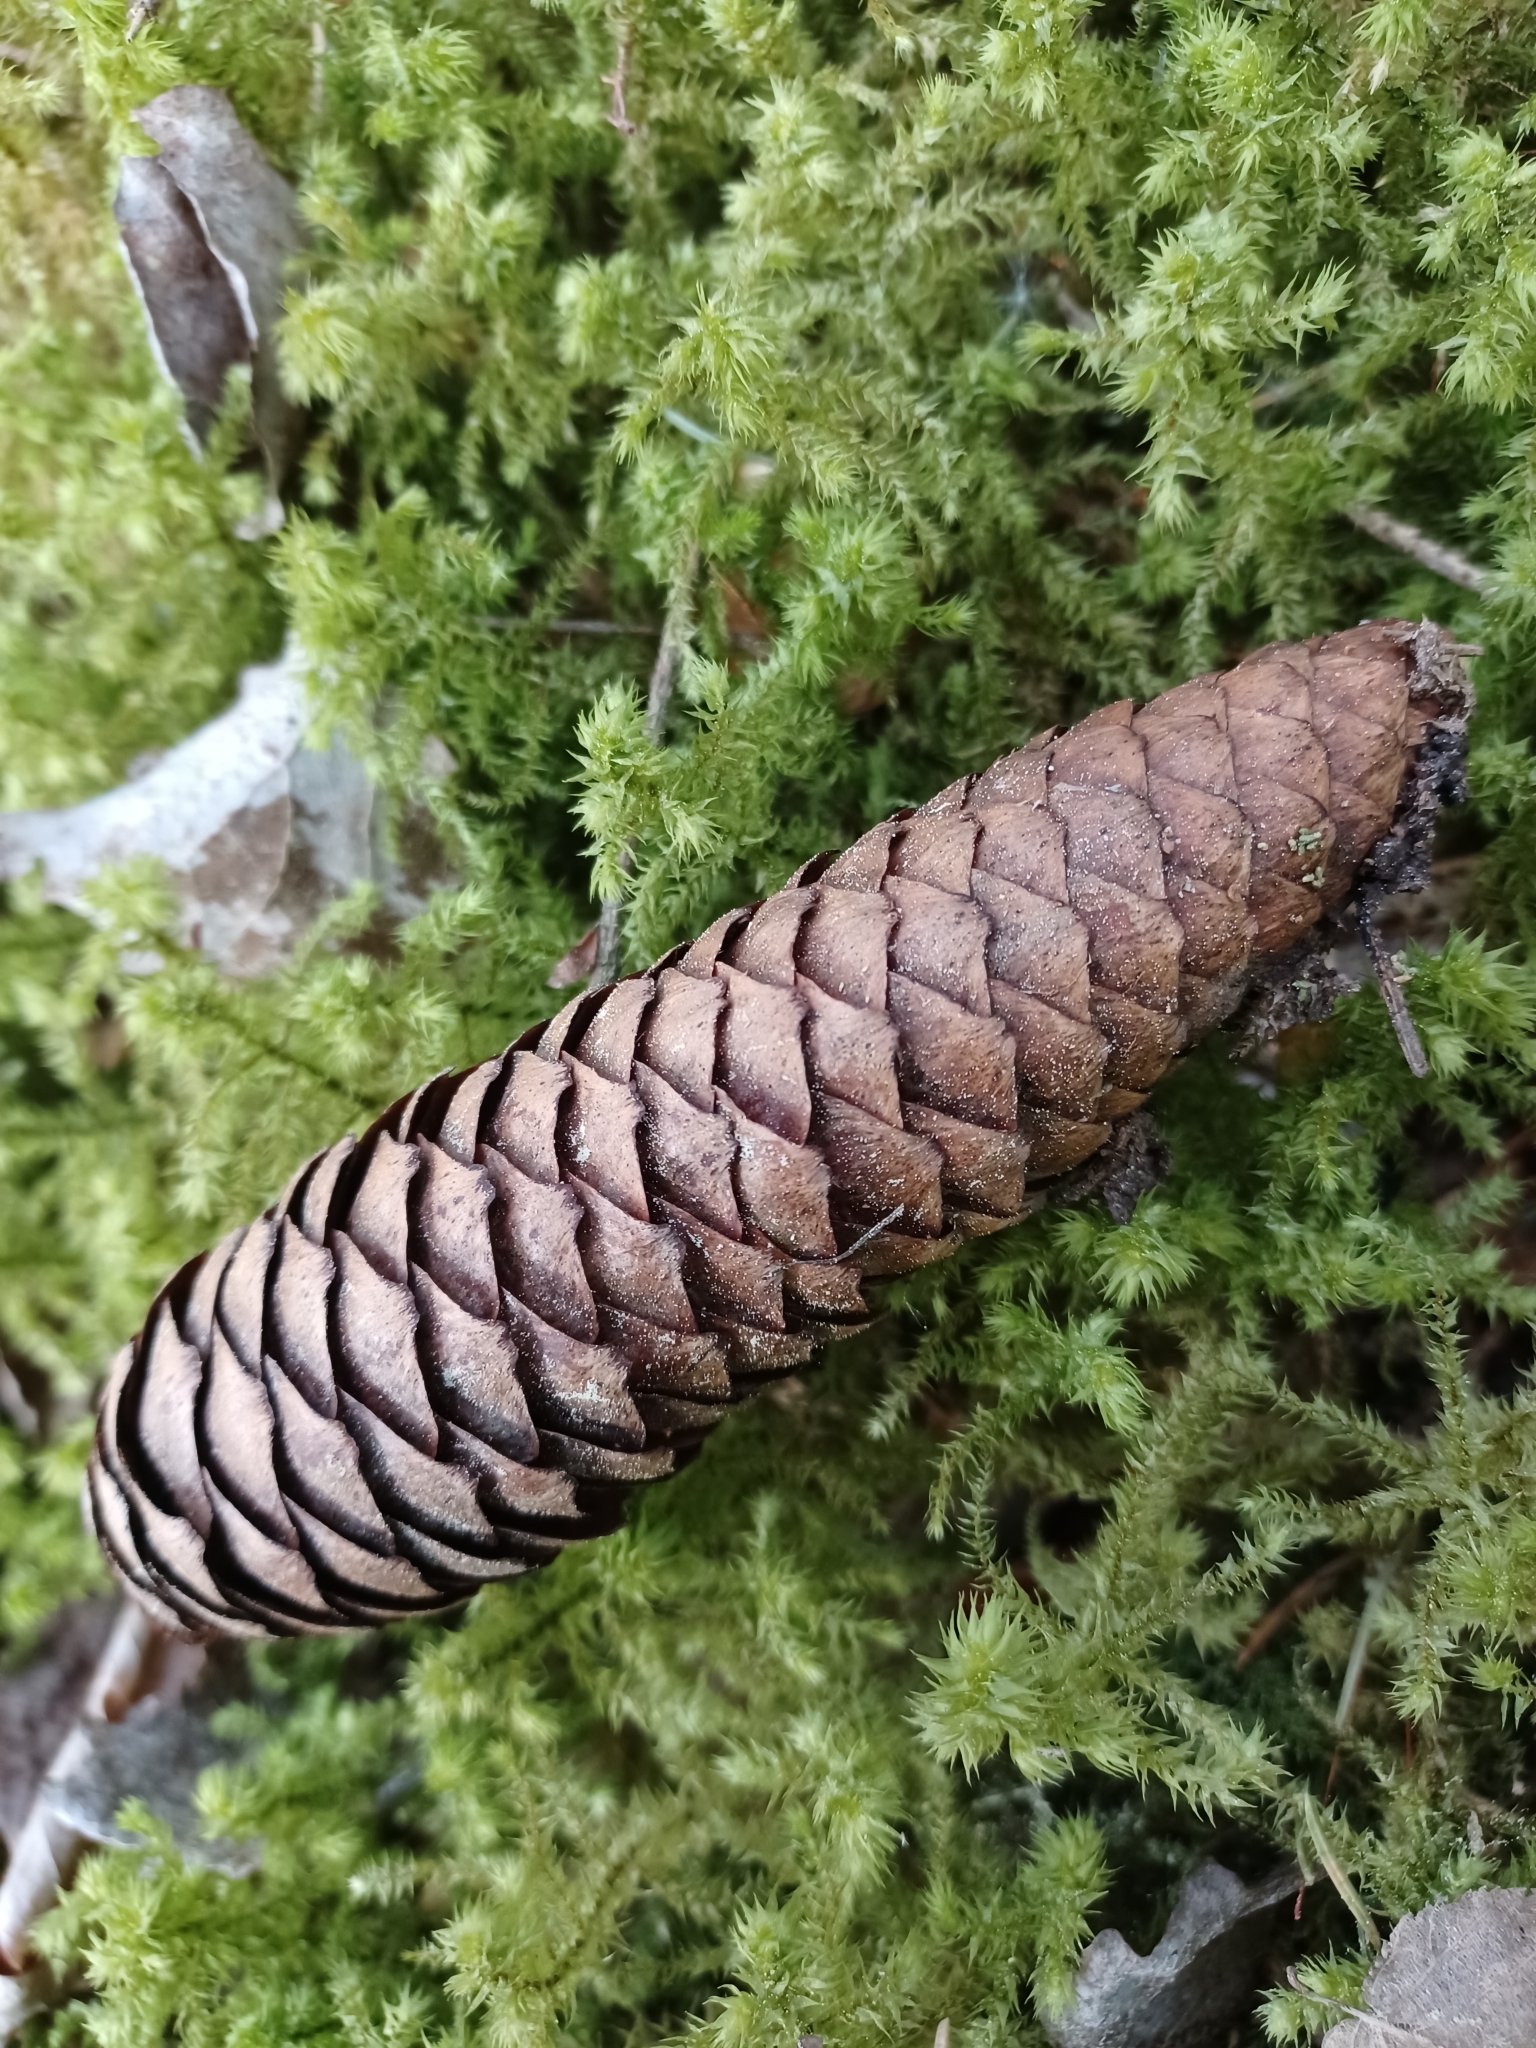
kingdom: Plantae
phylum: Tracheophyta
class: Pinopsida
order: Pinales
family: Pinaceae
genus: Picea
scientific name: Picea abies
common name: Norway spruce
